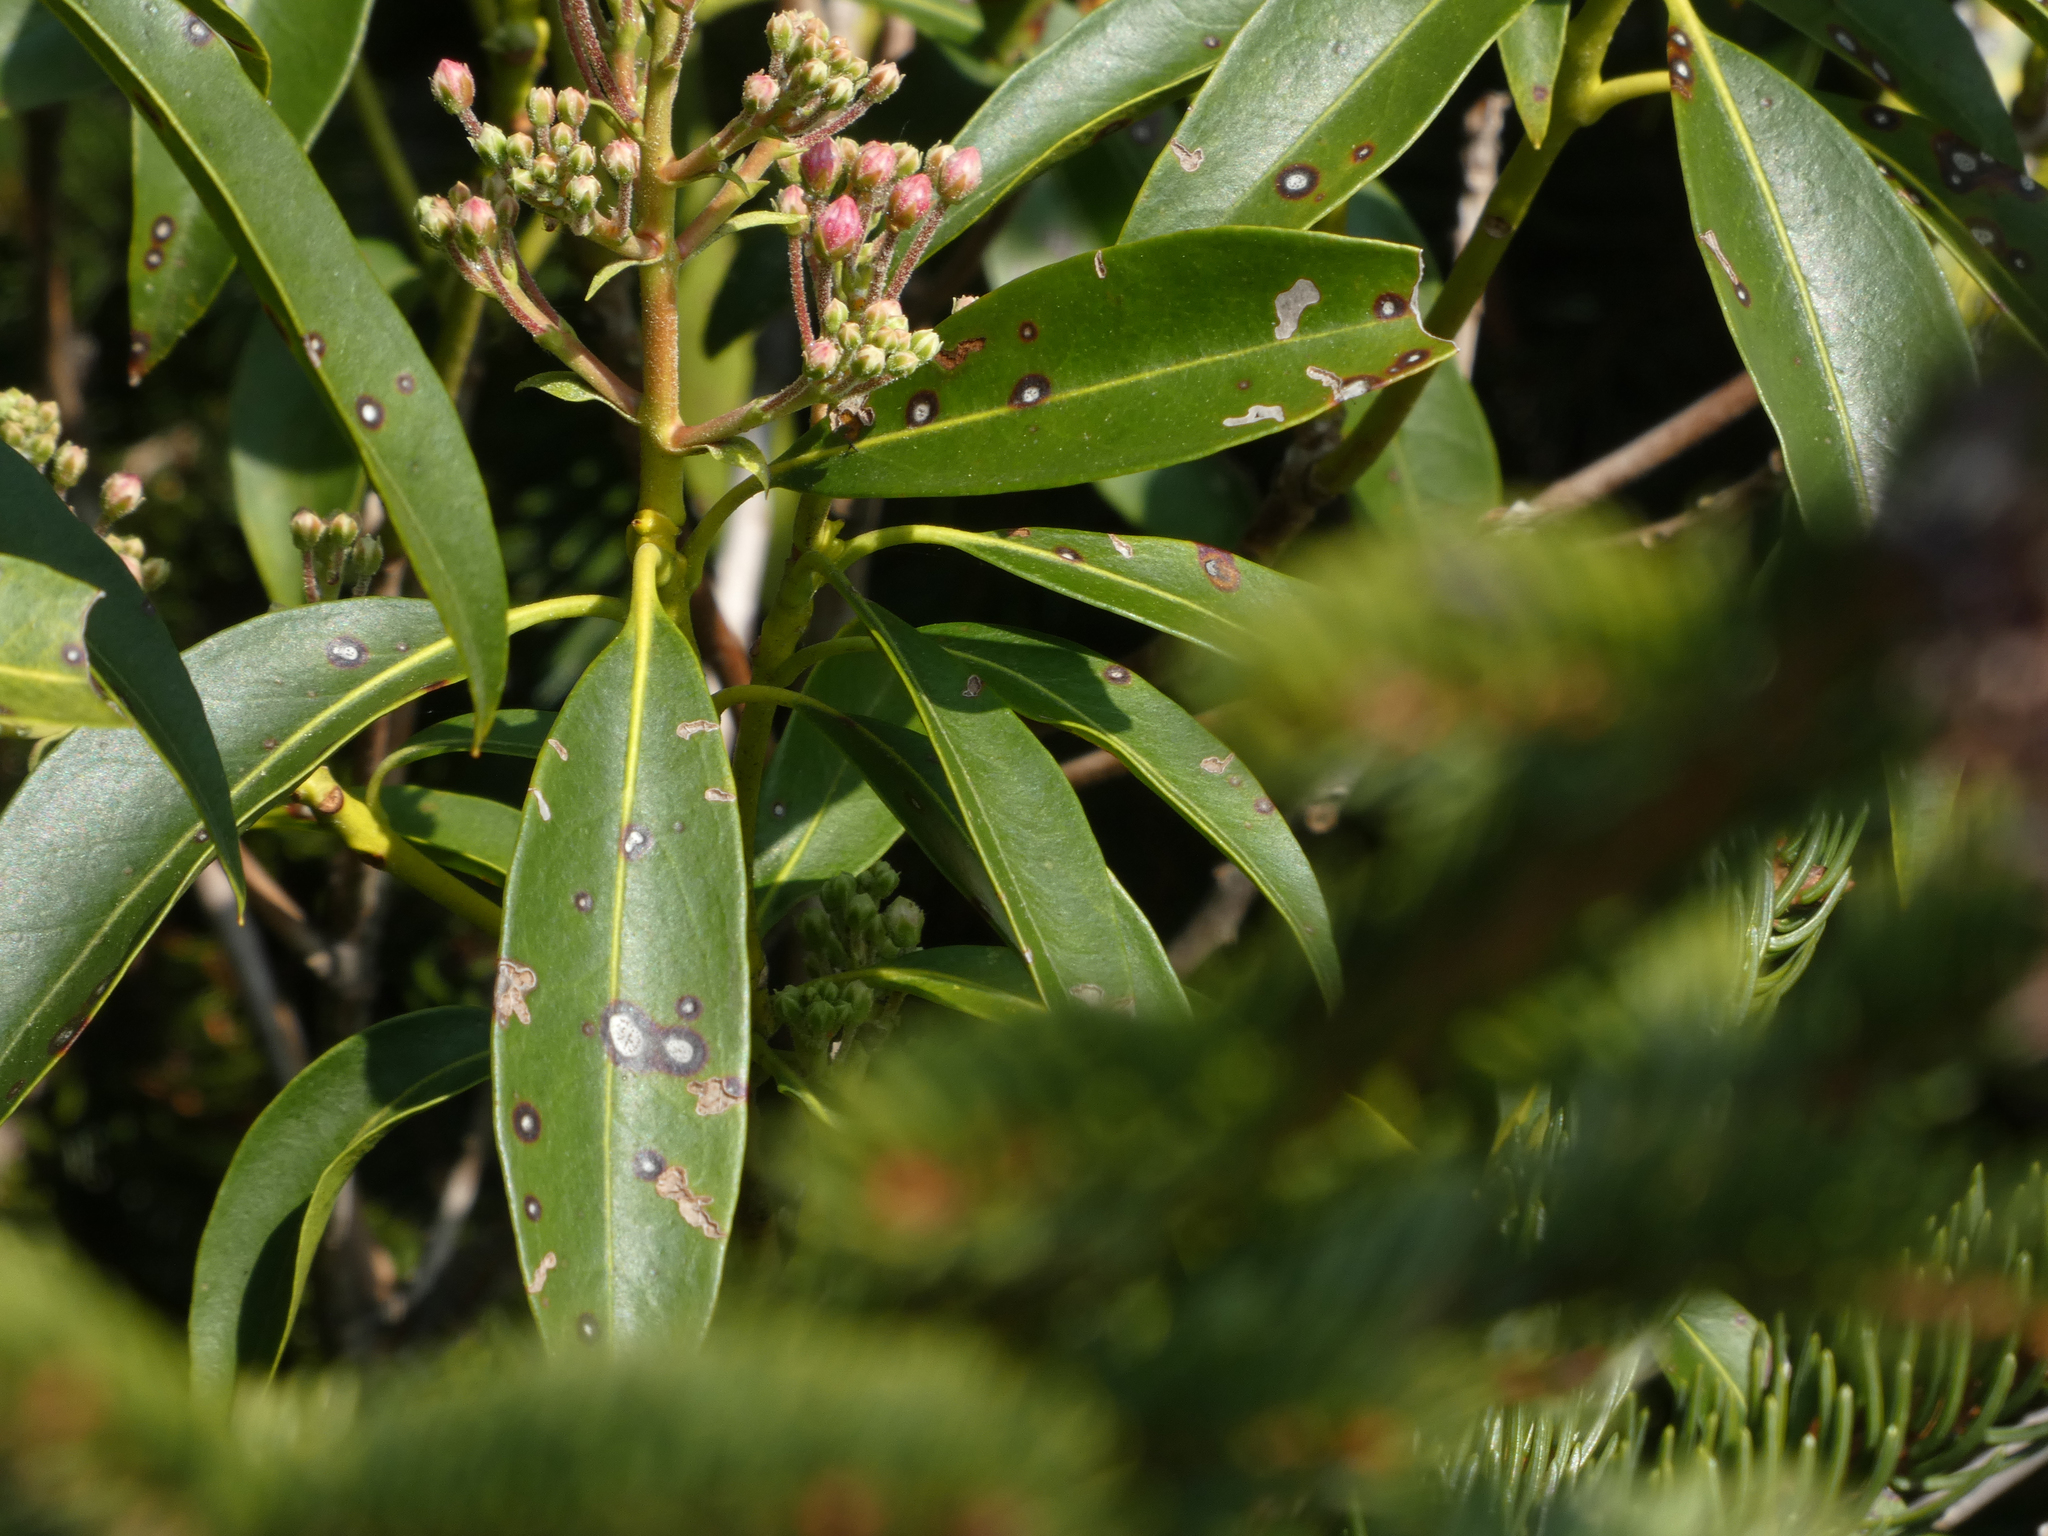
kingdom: Fungi
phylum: Ascomycota
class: Dothideomycetes
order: Mycosphaerellales
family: Mycosphaerellaceae
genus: Mycosphaerella
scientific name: Mycosphaerella colorata
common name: Mountain laurel leaf spot
